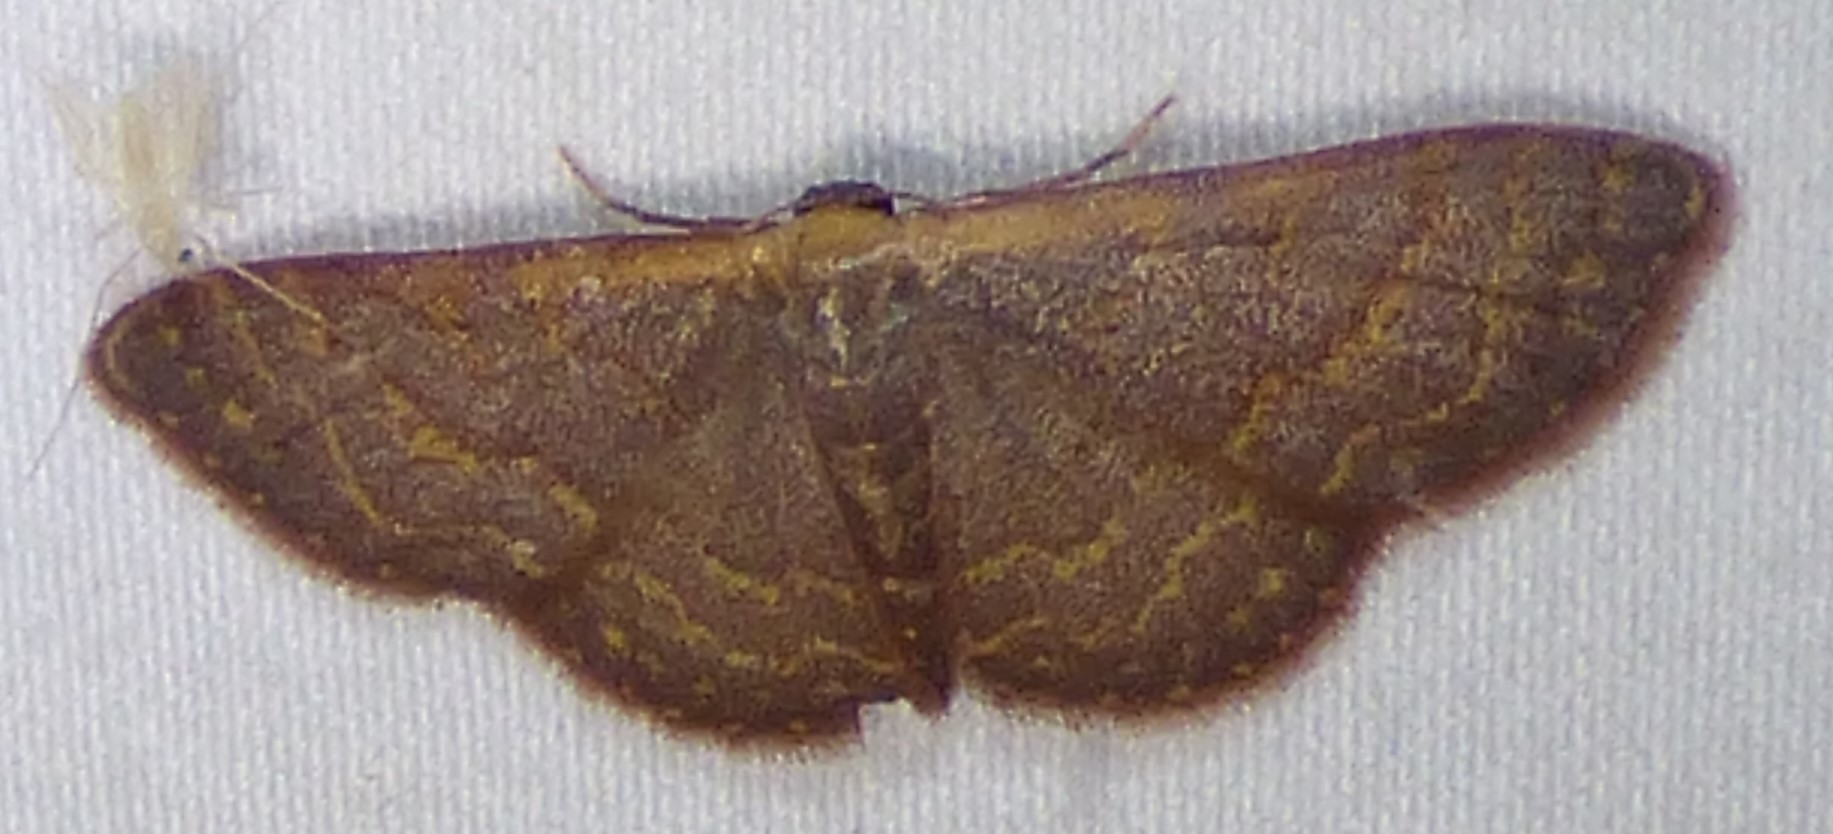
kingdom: Animalia
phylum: Arthropoda
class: Insecta
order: Lepidoptera
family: Geometridae
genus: Leptostales
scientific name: Leptostales pannaria
